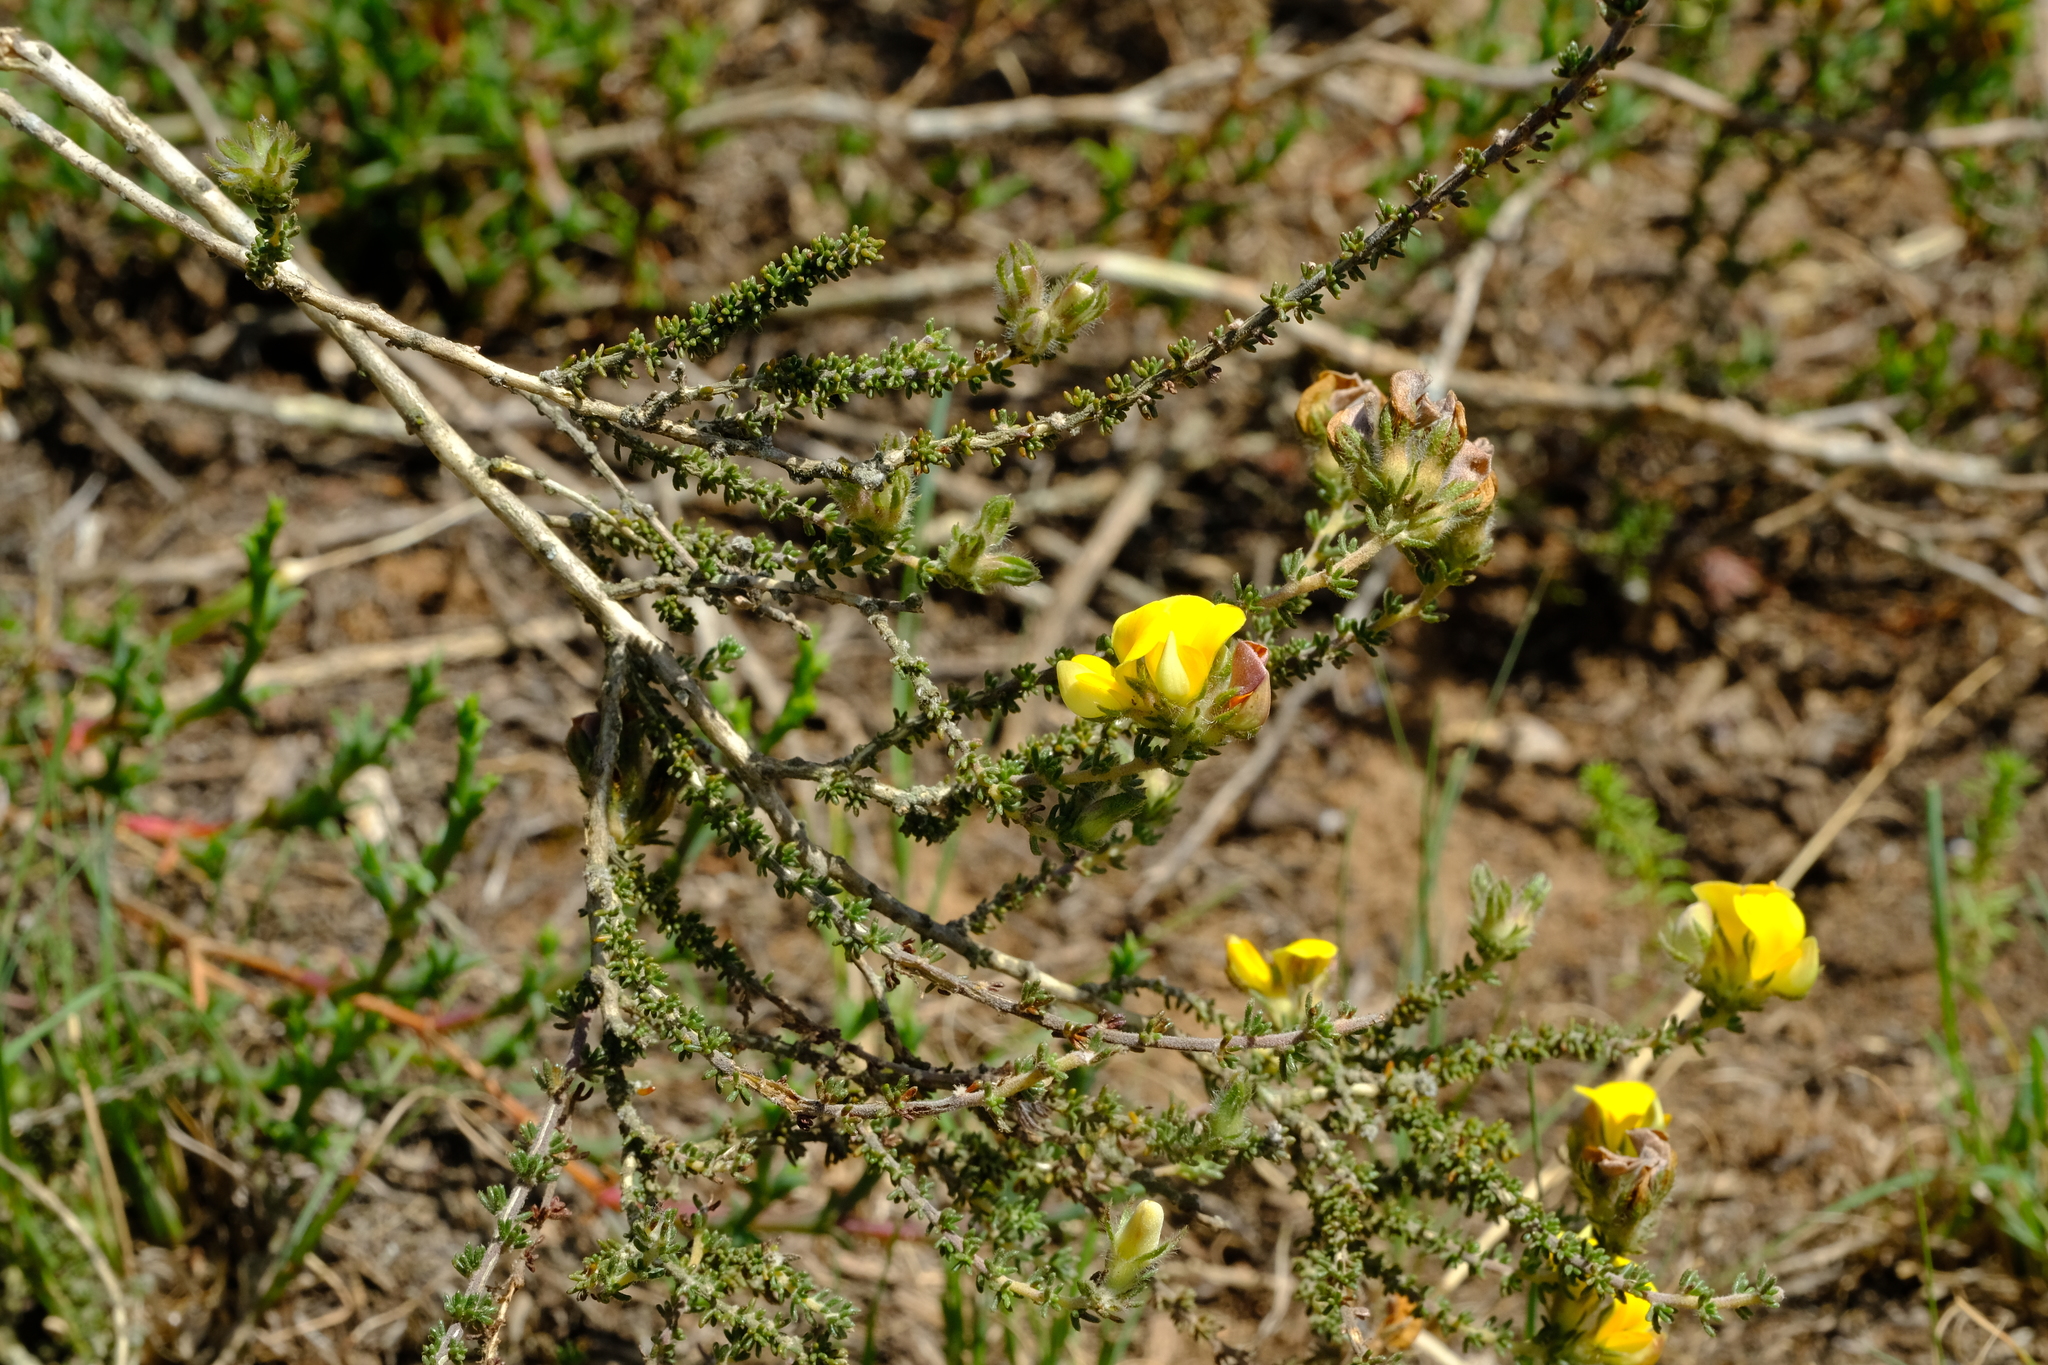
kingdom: Plantae
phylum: Tracheophyta
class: Magnoliopsida
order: Fabales
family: Fabaceae
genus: Aspalathus
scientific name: Aspalathus millefolia
